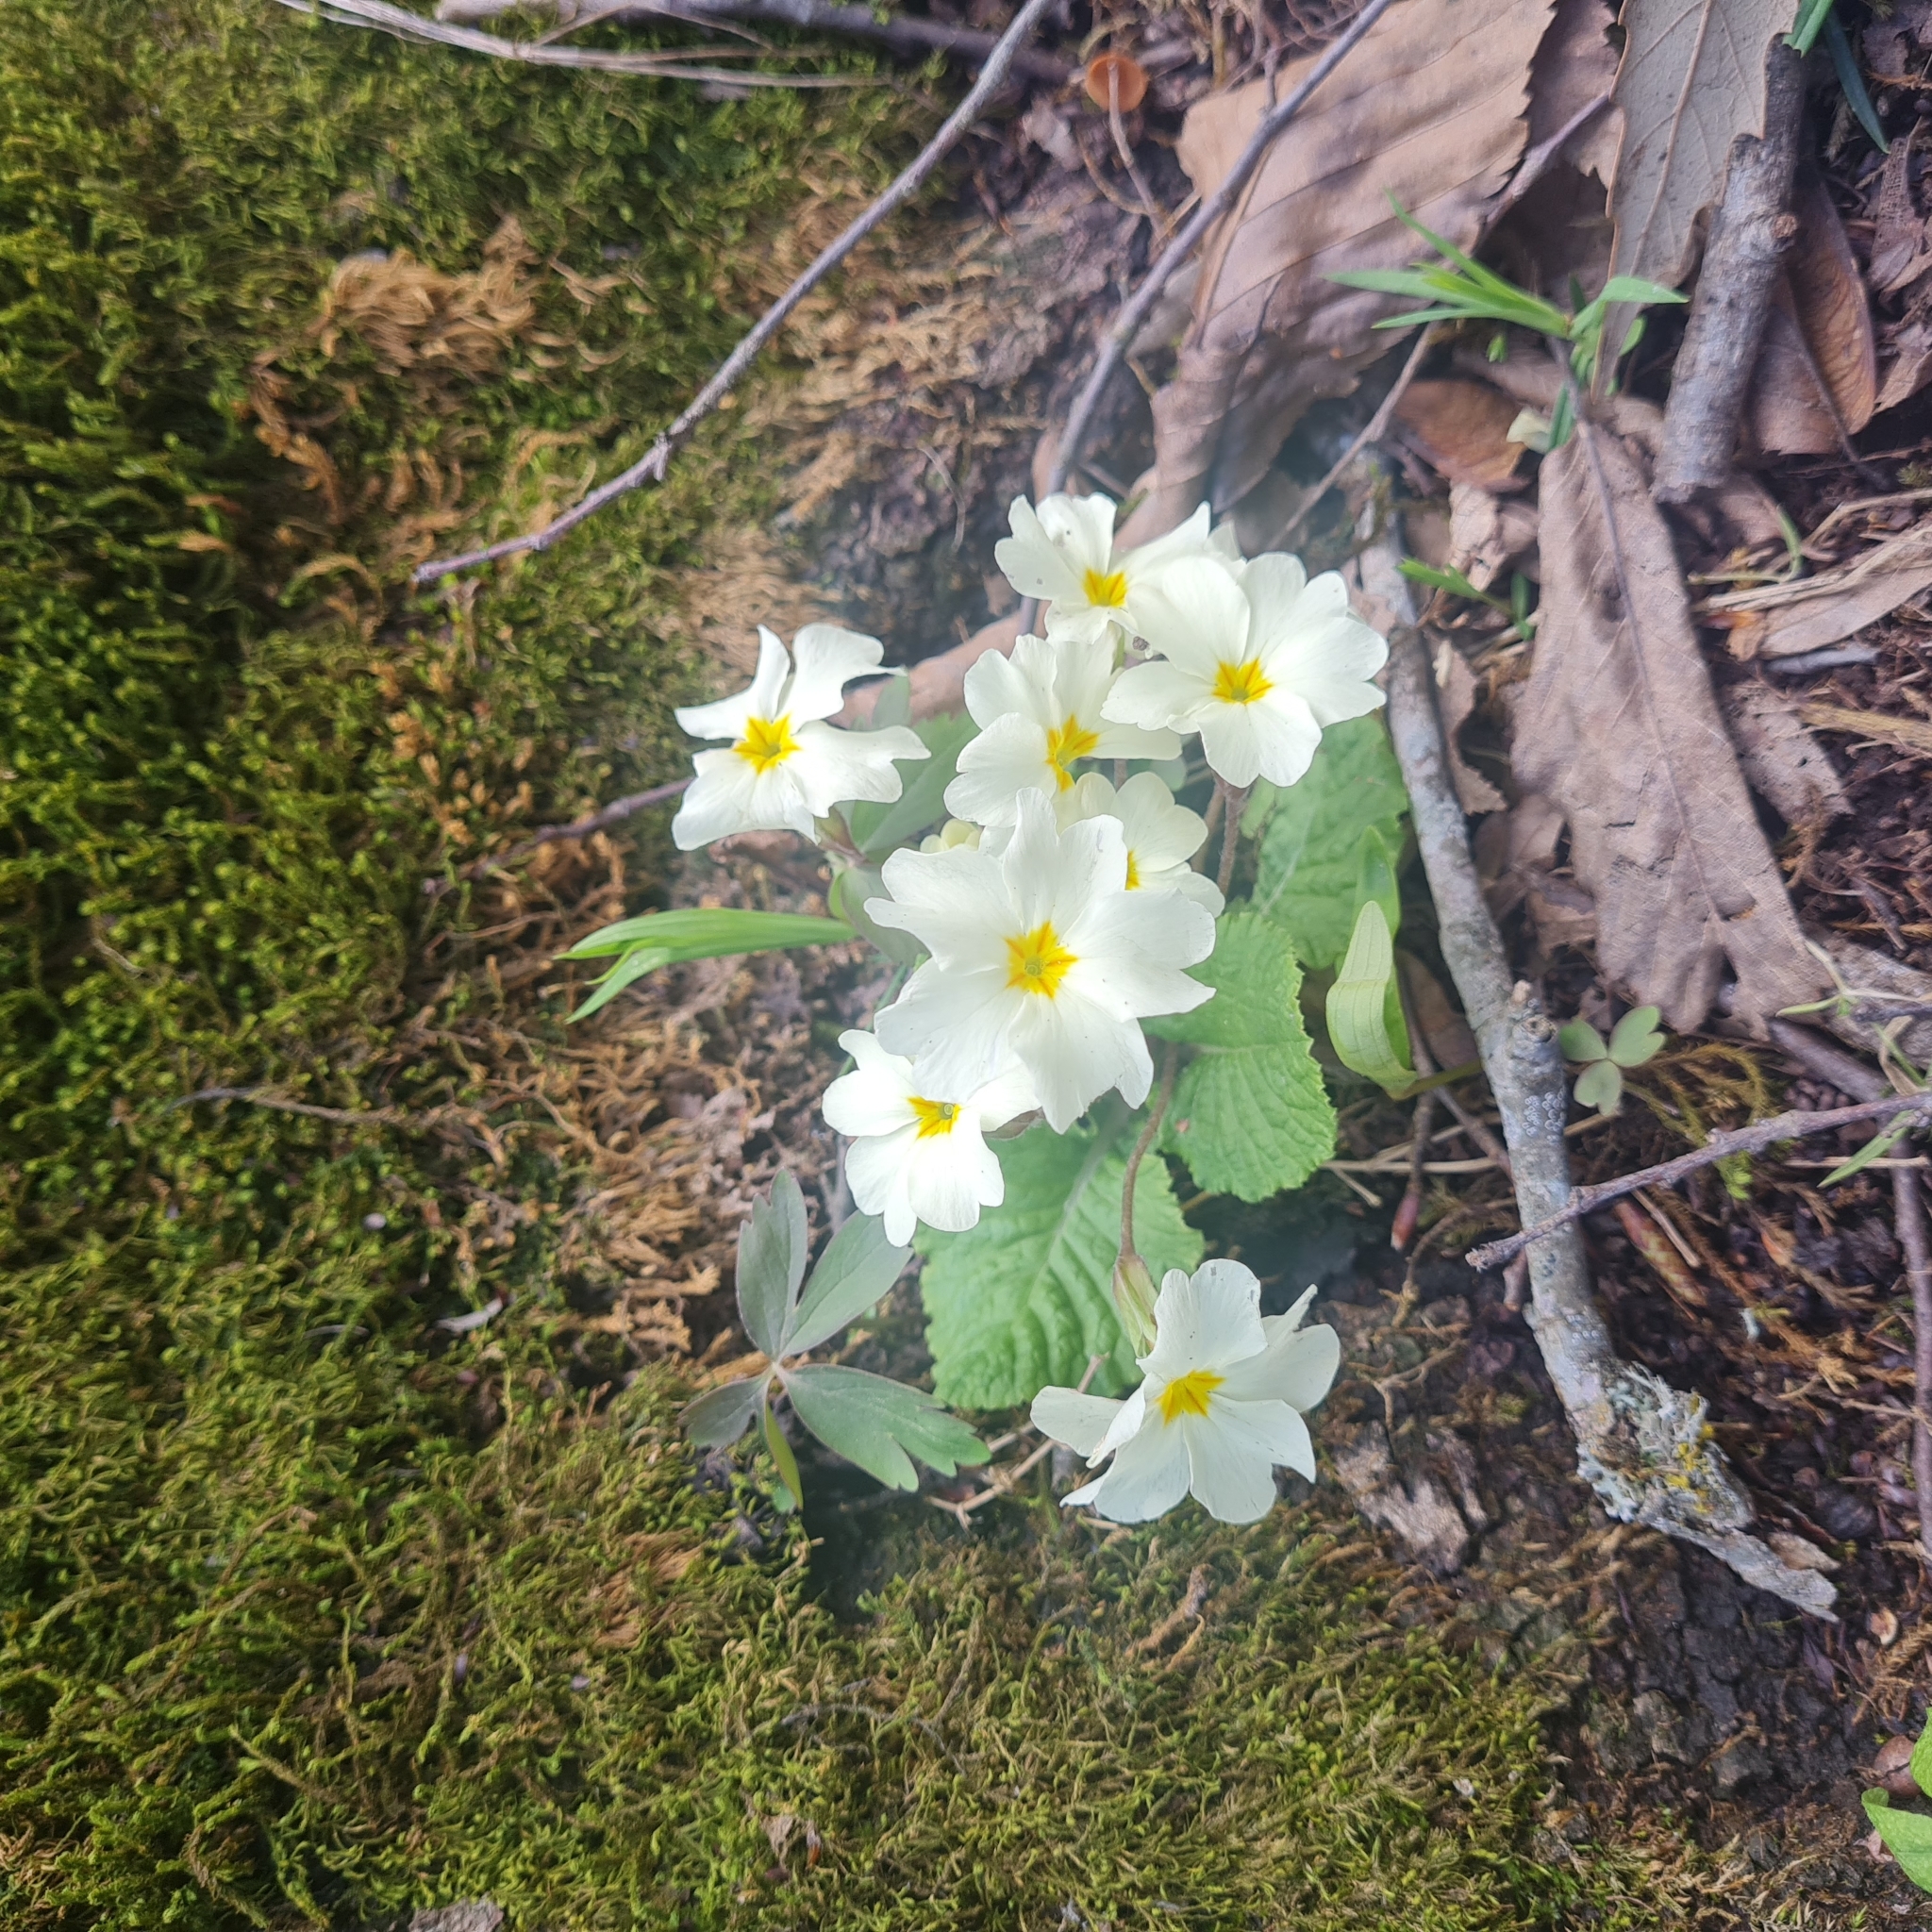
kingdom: Plantae
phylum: Tracheophyta
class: Magnoliopsida
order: Ericales
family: Primulaceae
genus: Primula
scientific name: Primula vulgaris
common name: Primrose
